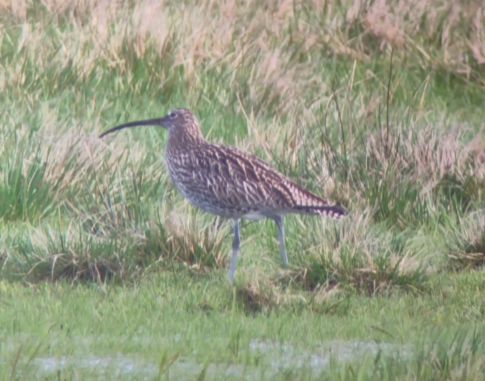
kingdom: Animalia
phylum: Chordata
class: Aves
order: Charadriiformes
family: Scolopacidae
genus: Numenius
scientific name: Numenius arquata
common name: Eurasian curlew
